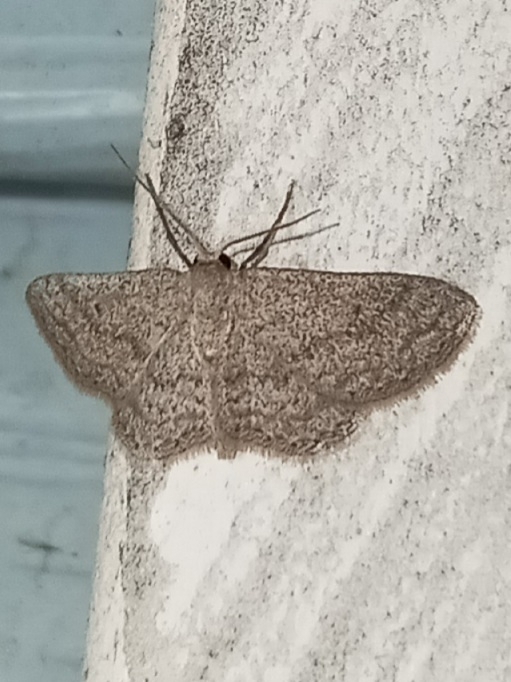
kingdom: Animalia
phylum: Arthropoda
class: Insecta
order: Lepidoptera
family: Geometridae
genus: Lobocleta
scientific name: Lobocleta ossularia
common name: Drab brown wave
